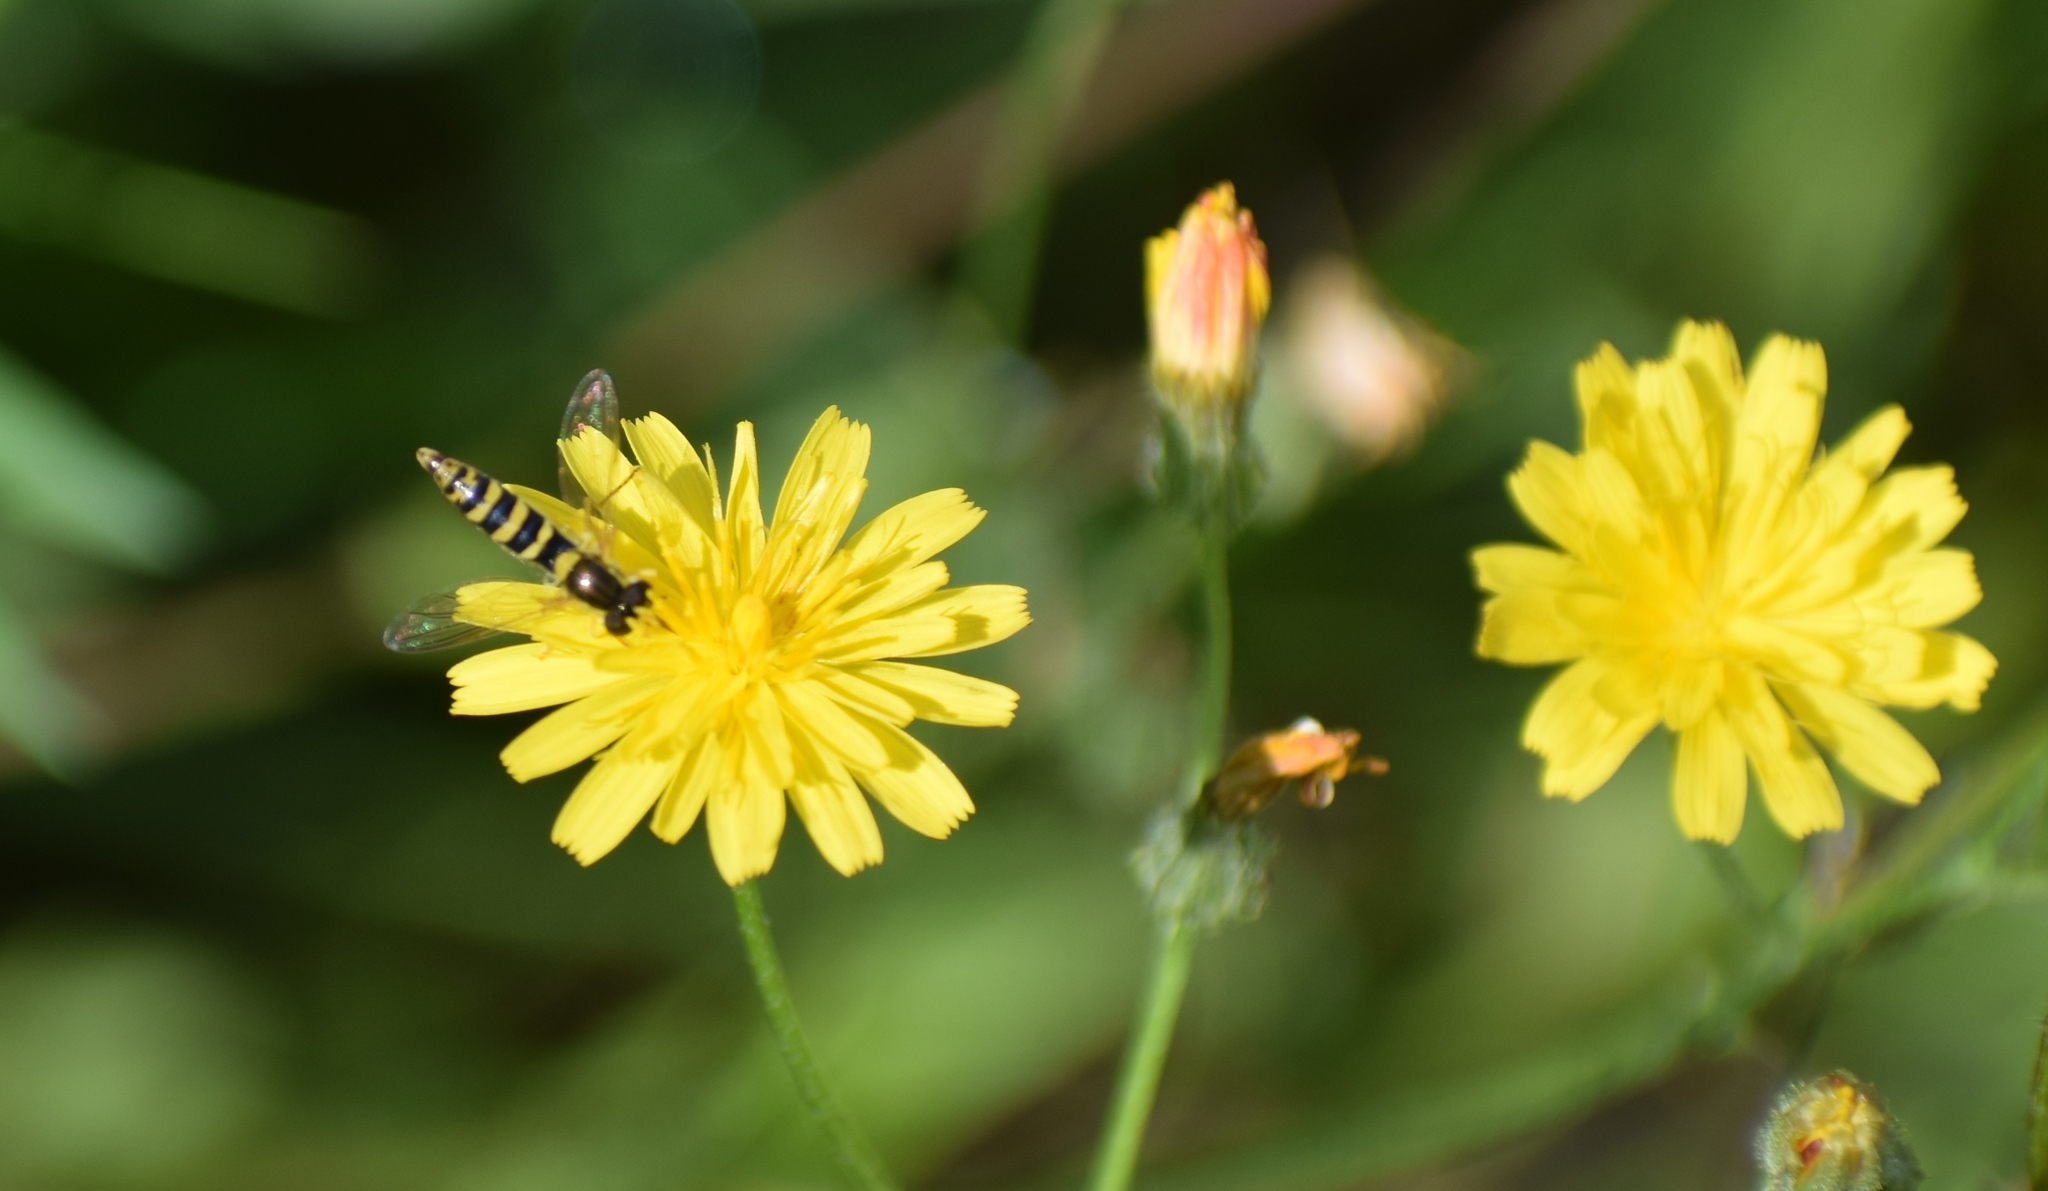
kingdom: Animalia
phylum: Arthropoda
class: Insecta
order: Diptera
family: Syrphidae
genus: Sphaerophoria
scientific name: Sphaerophoria
